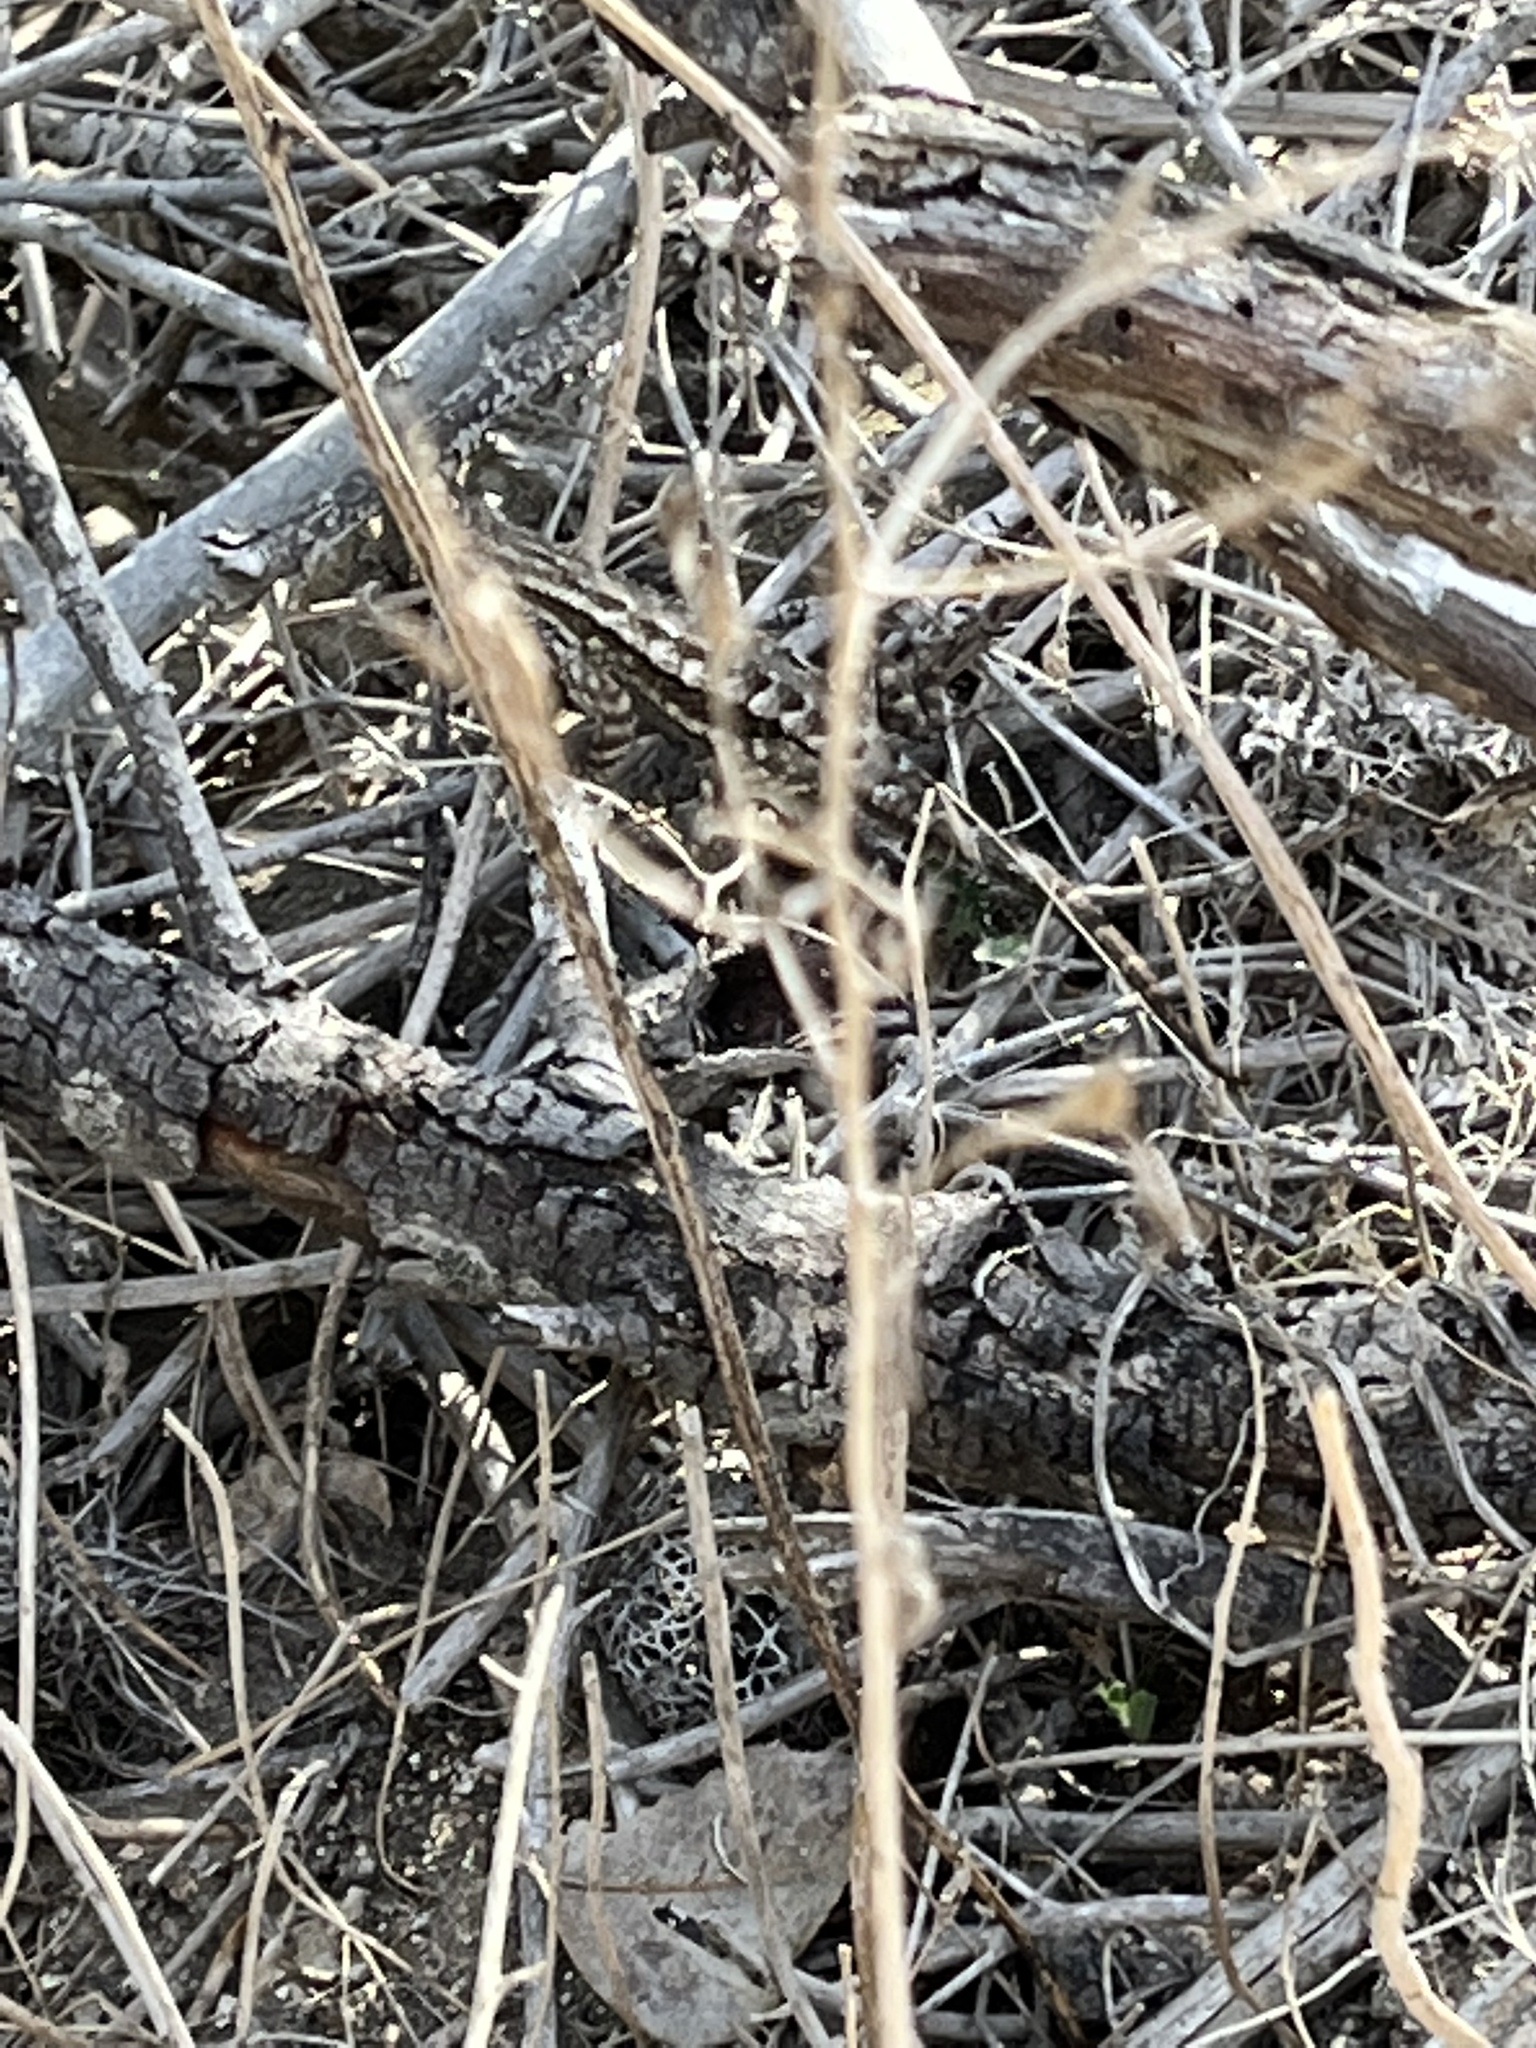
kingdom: Animalia
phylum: Chordata
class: Squamata
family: Phrynosomatidae
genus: Sceloporus
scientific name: Sceloporus occidentalis
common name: Western fence lizard
